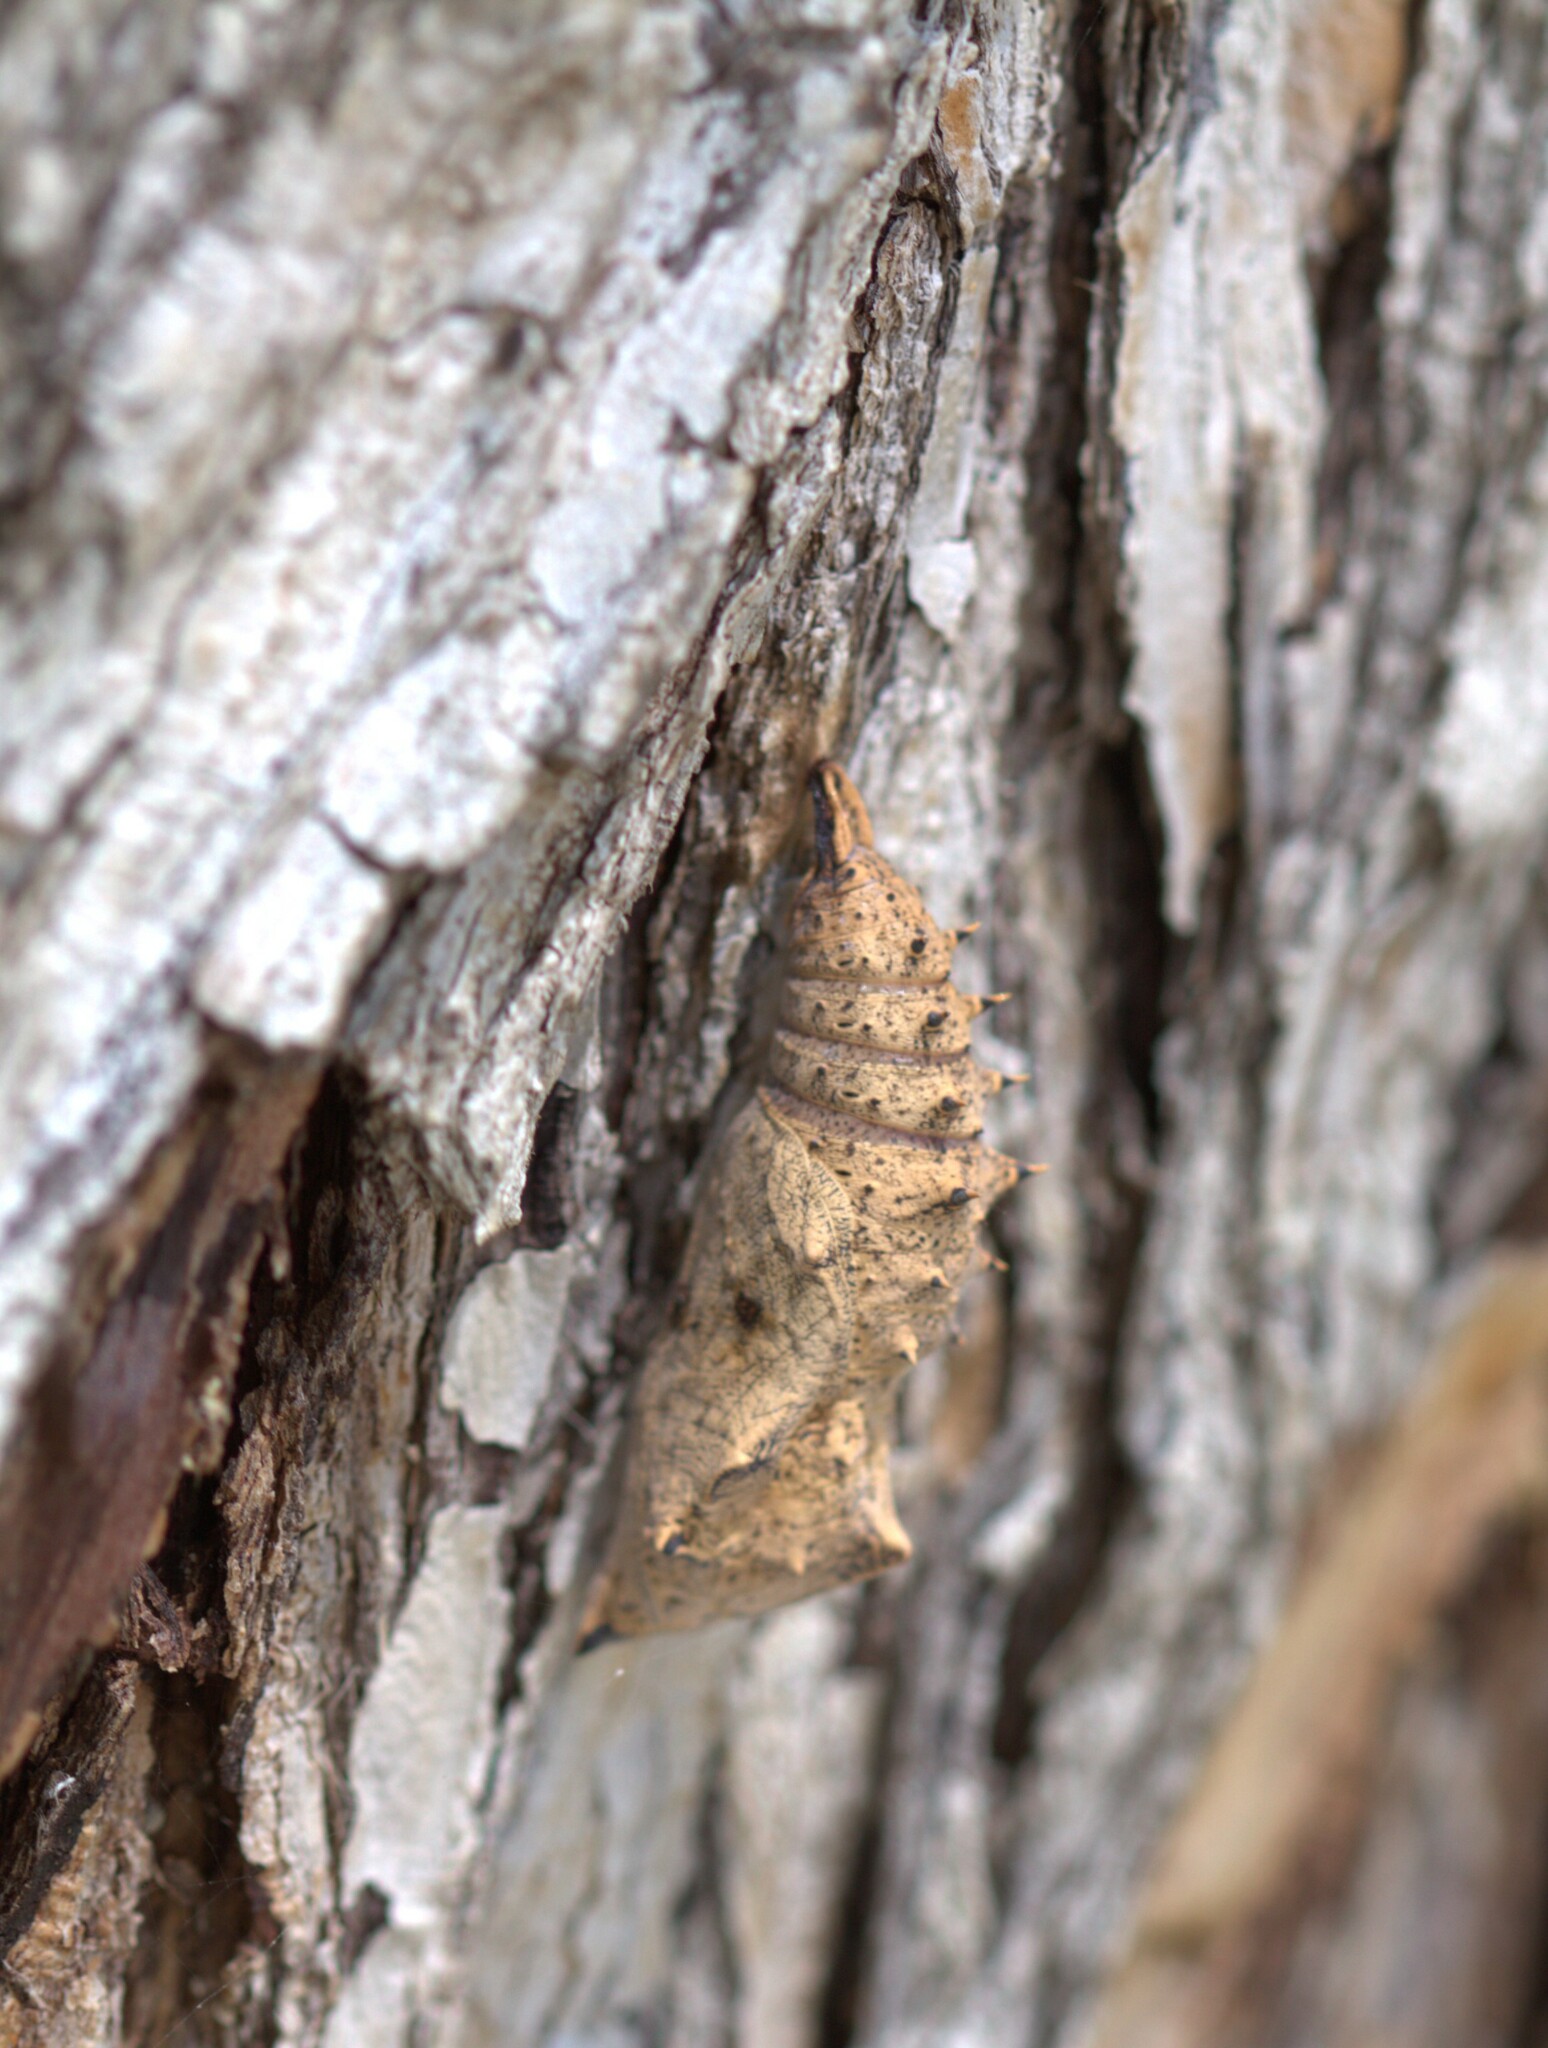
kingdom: Animalia
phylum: Arthropoda
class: Insecta
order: Lepidoptera
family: Nymphalidae
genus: Nymphalis
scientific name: Nymphalis antiopa
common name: Camberwell beauty
